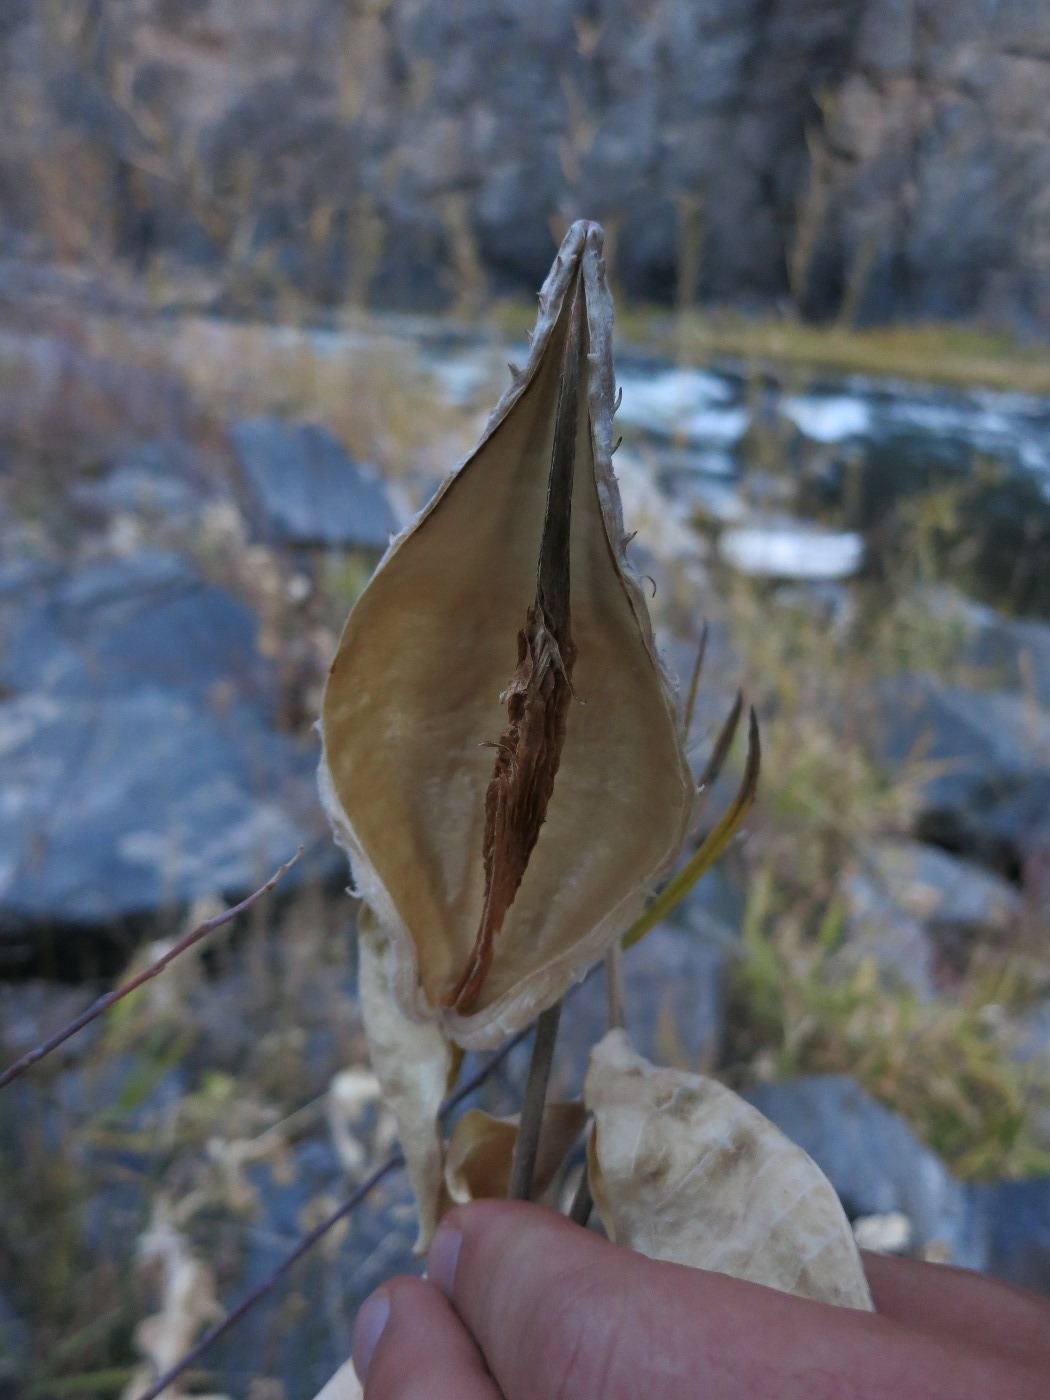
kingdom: Plantae
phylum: Tracheophyta
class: Magnoliopsida
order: Gentianales
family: Apocynaceae
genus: Asclepias
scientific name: Asclepias speciosa
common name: Showy milkweed
